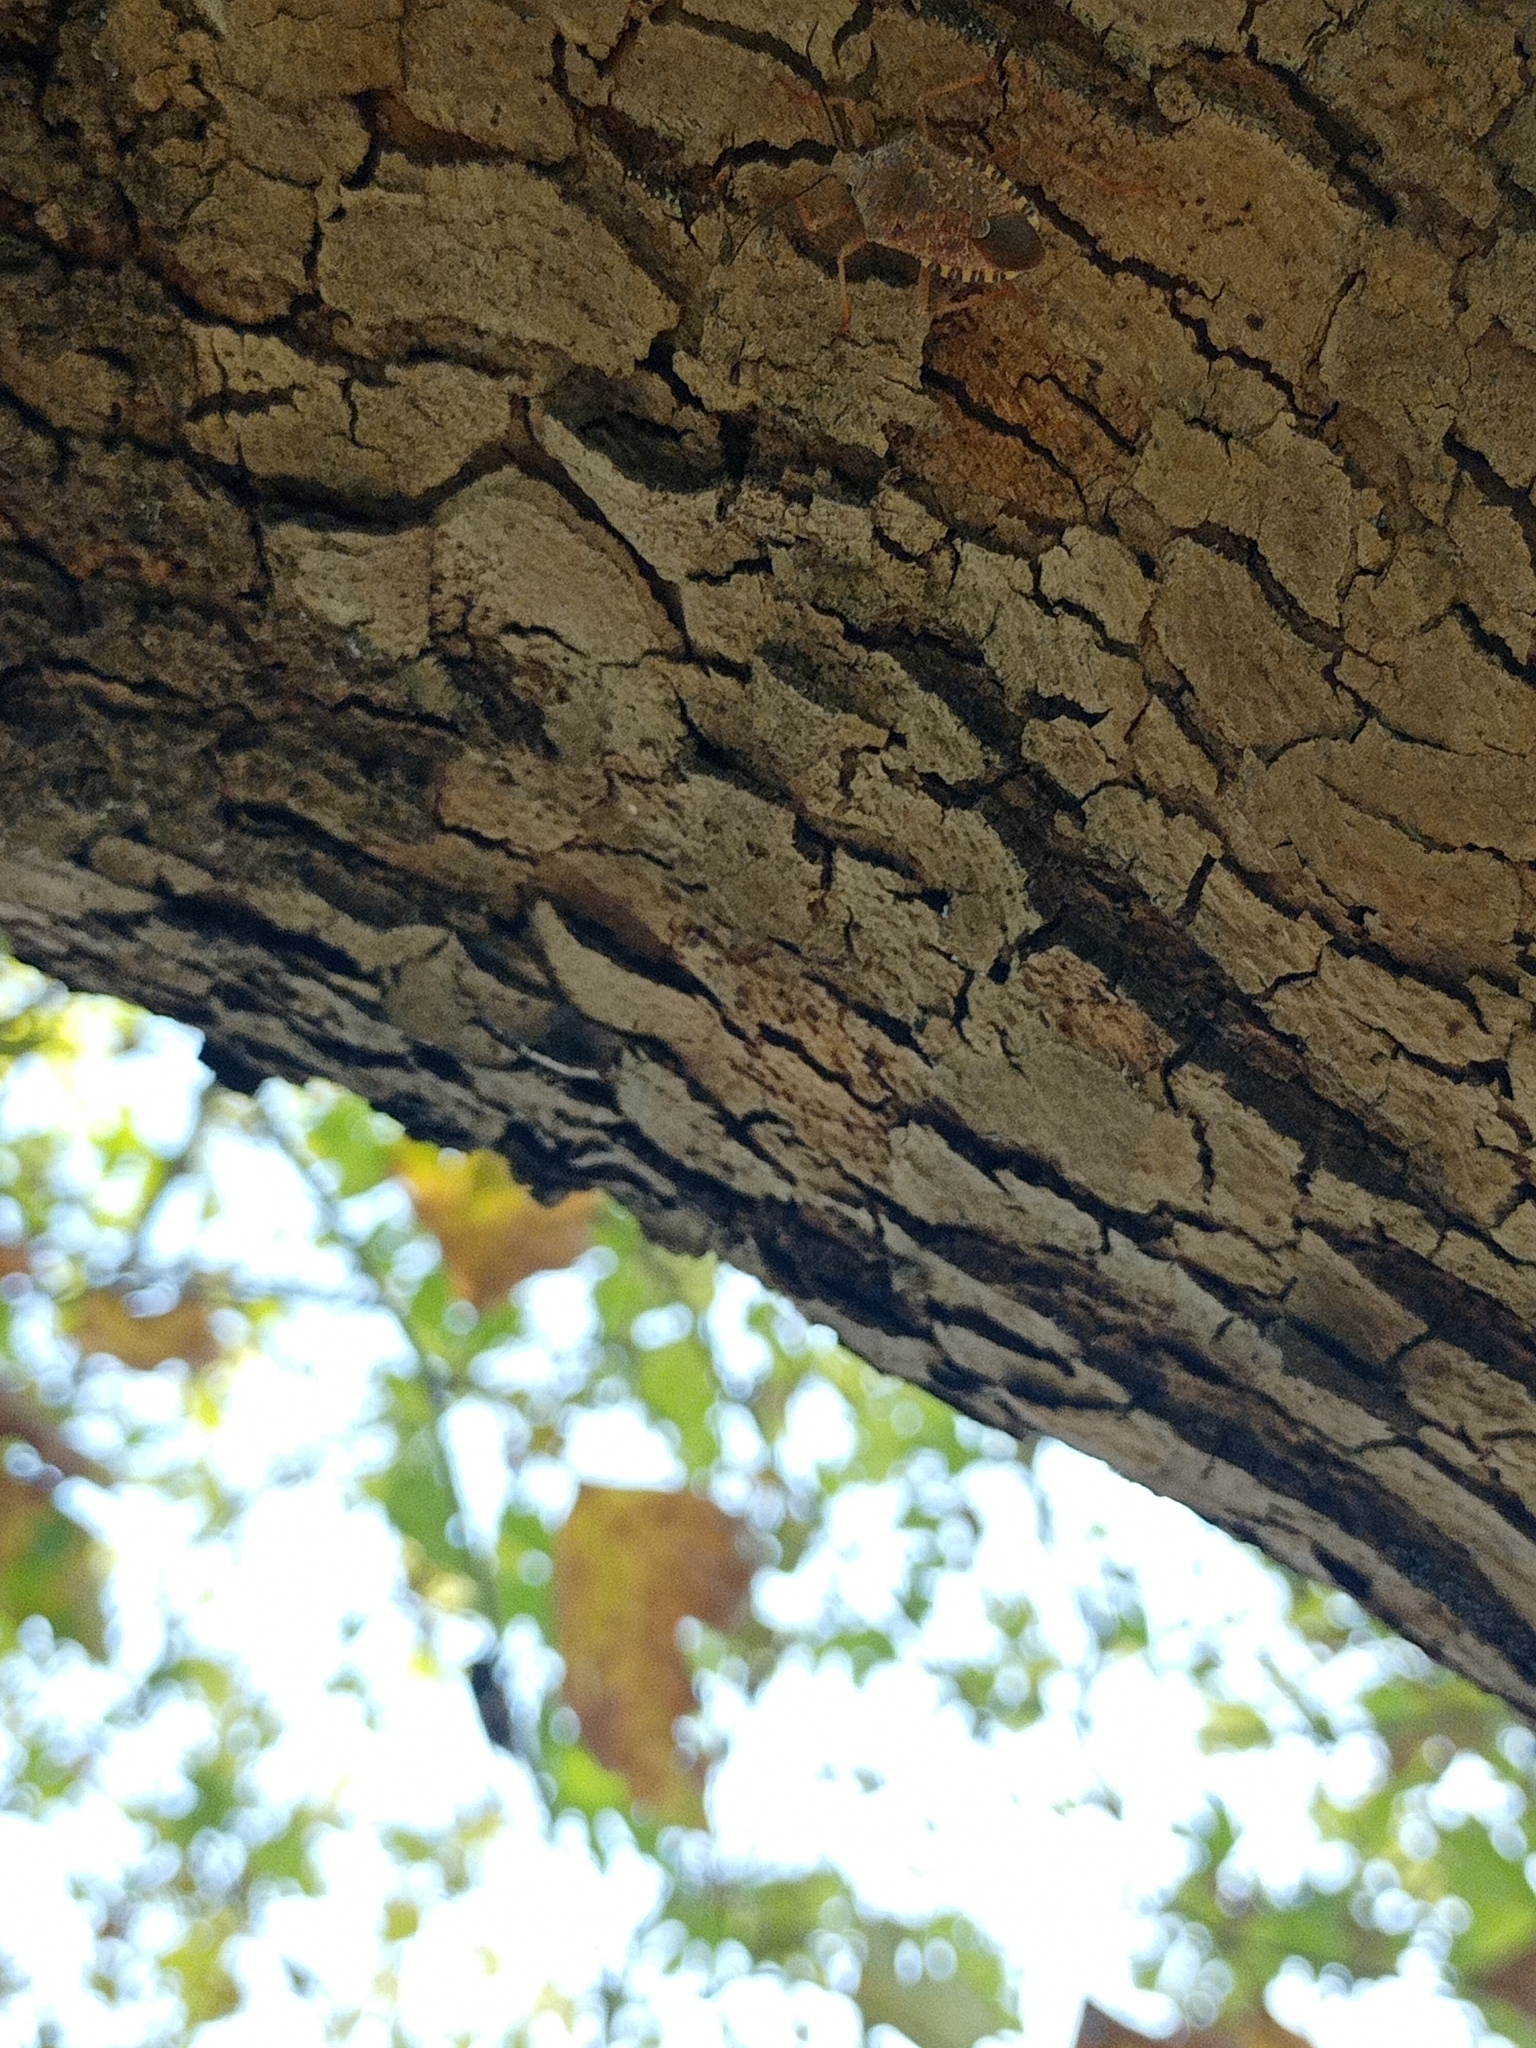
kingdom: Animalia
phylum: Arthropoda
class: Insecta
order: Hemiptera
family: Pentatomidae
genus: Apodiphus
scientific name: Apodiphus
